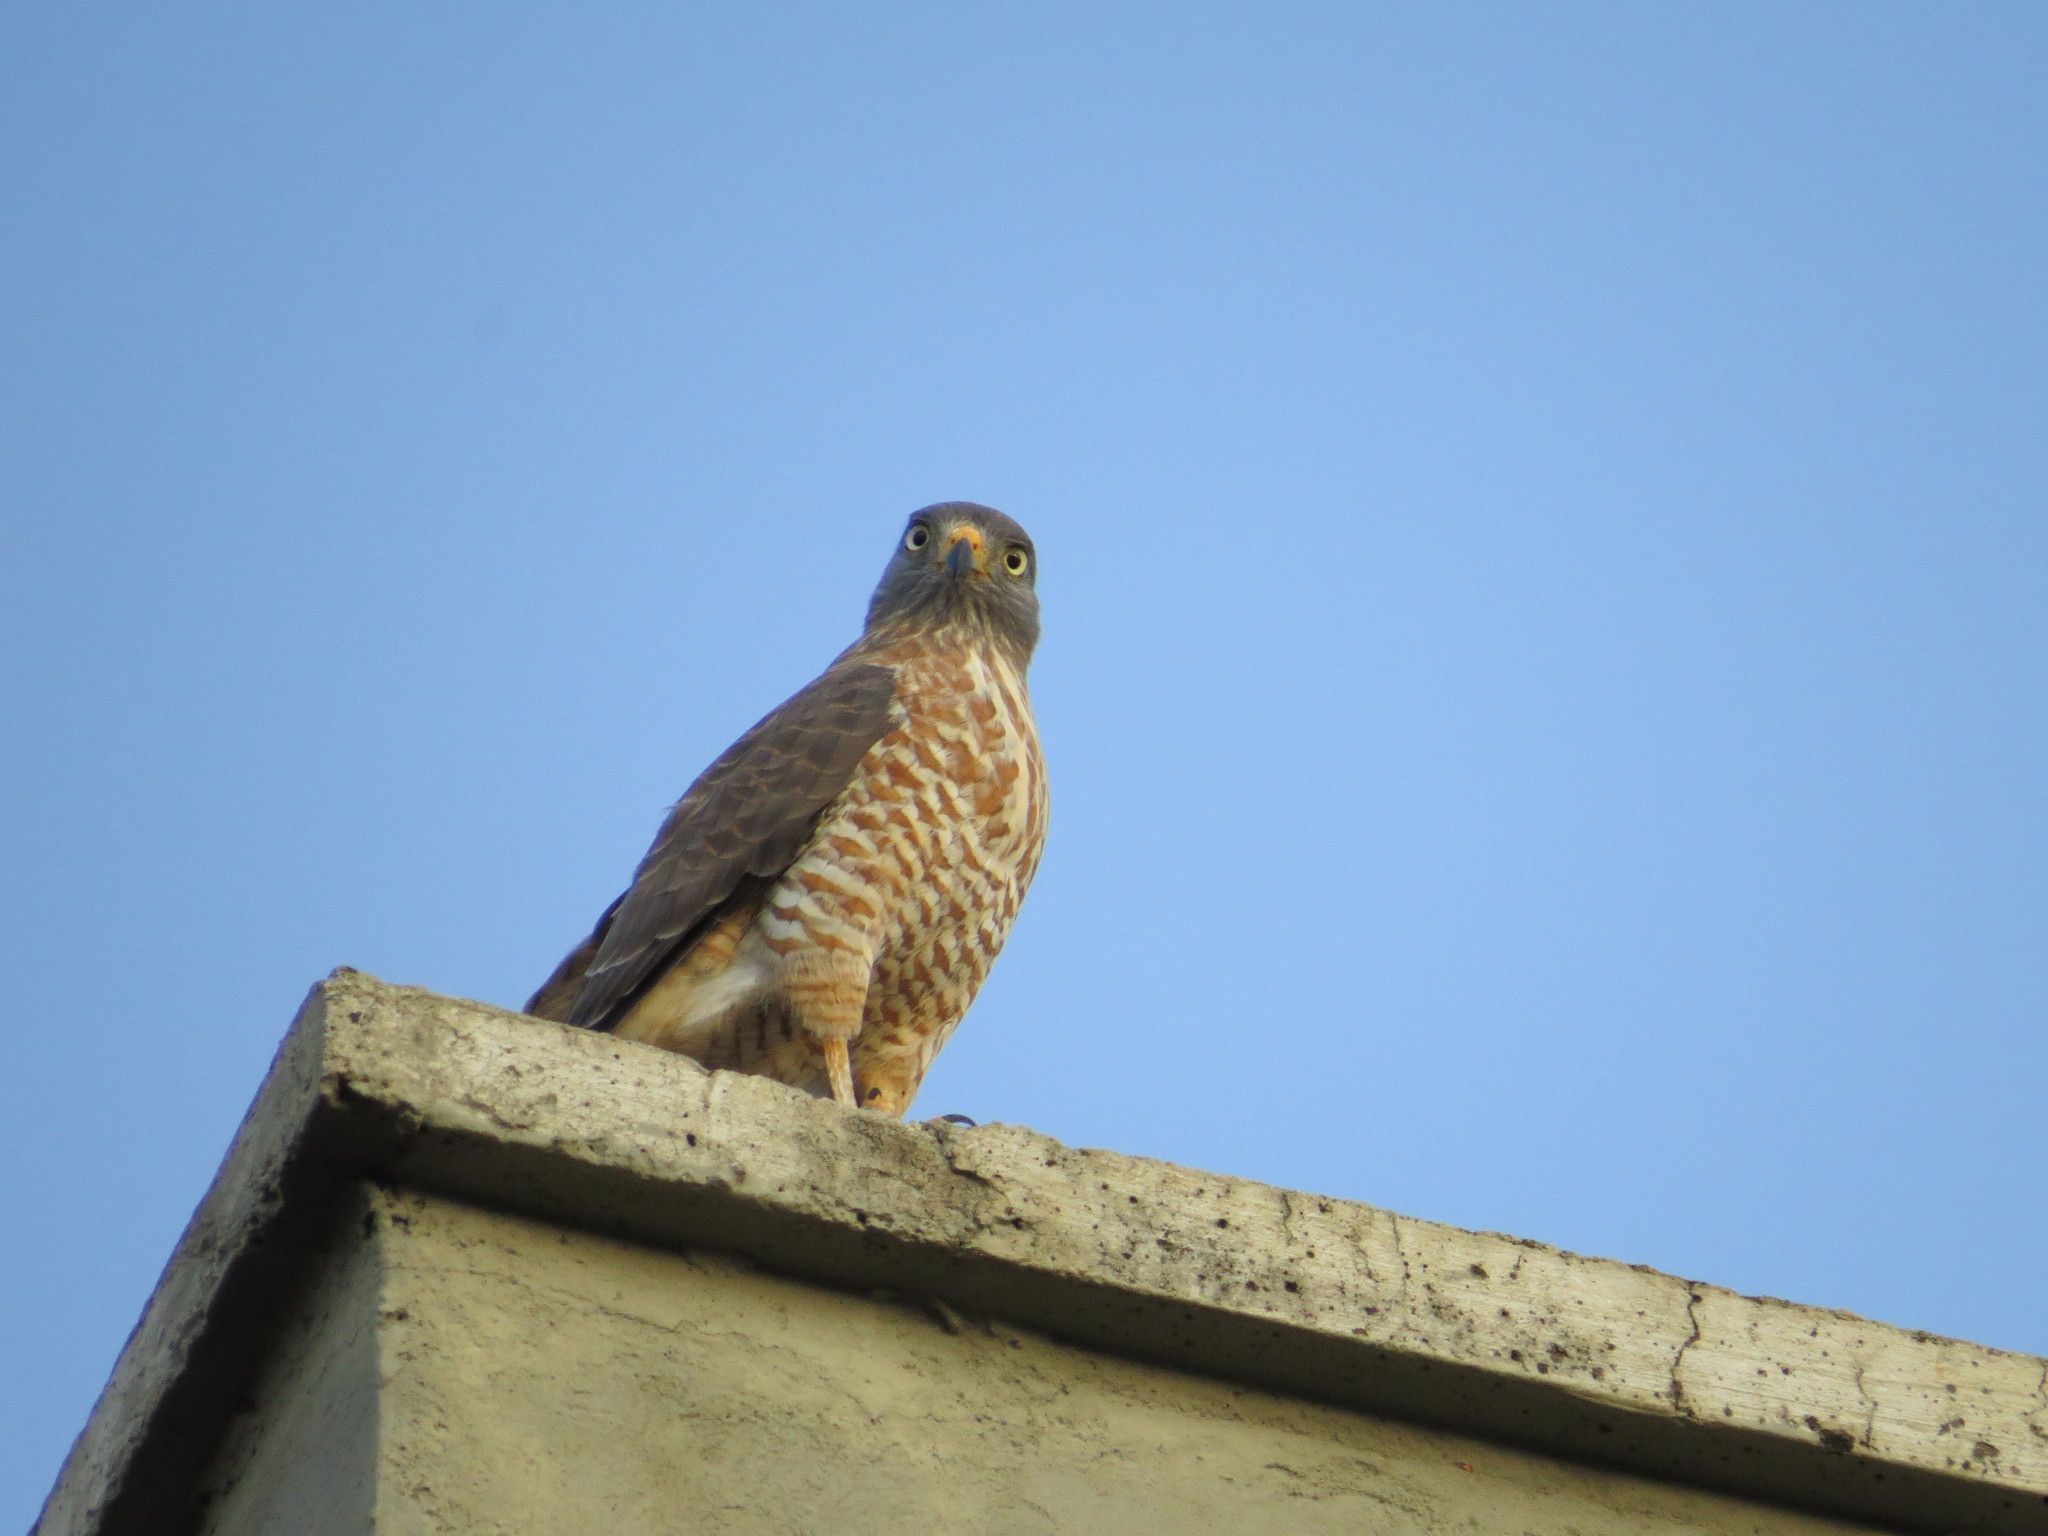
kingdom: Animalia
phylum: Chordata
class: Aves
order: Accipitriformes
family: Accipitridae
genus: Rupornis
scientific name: Rupornis magnirostris
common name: Roadside hawk
